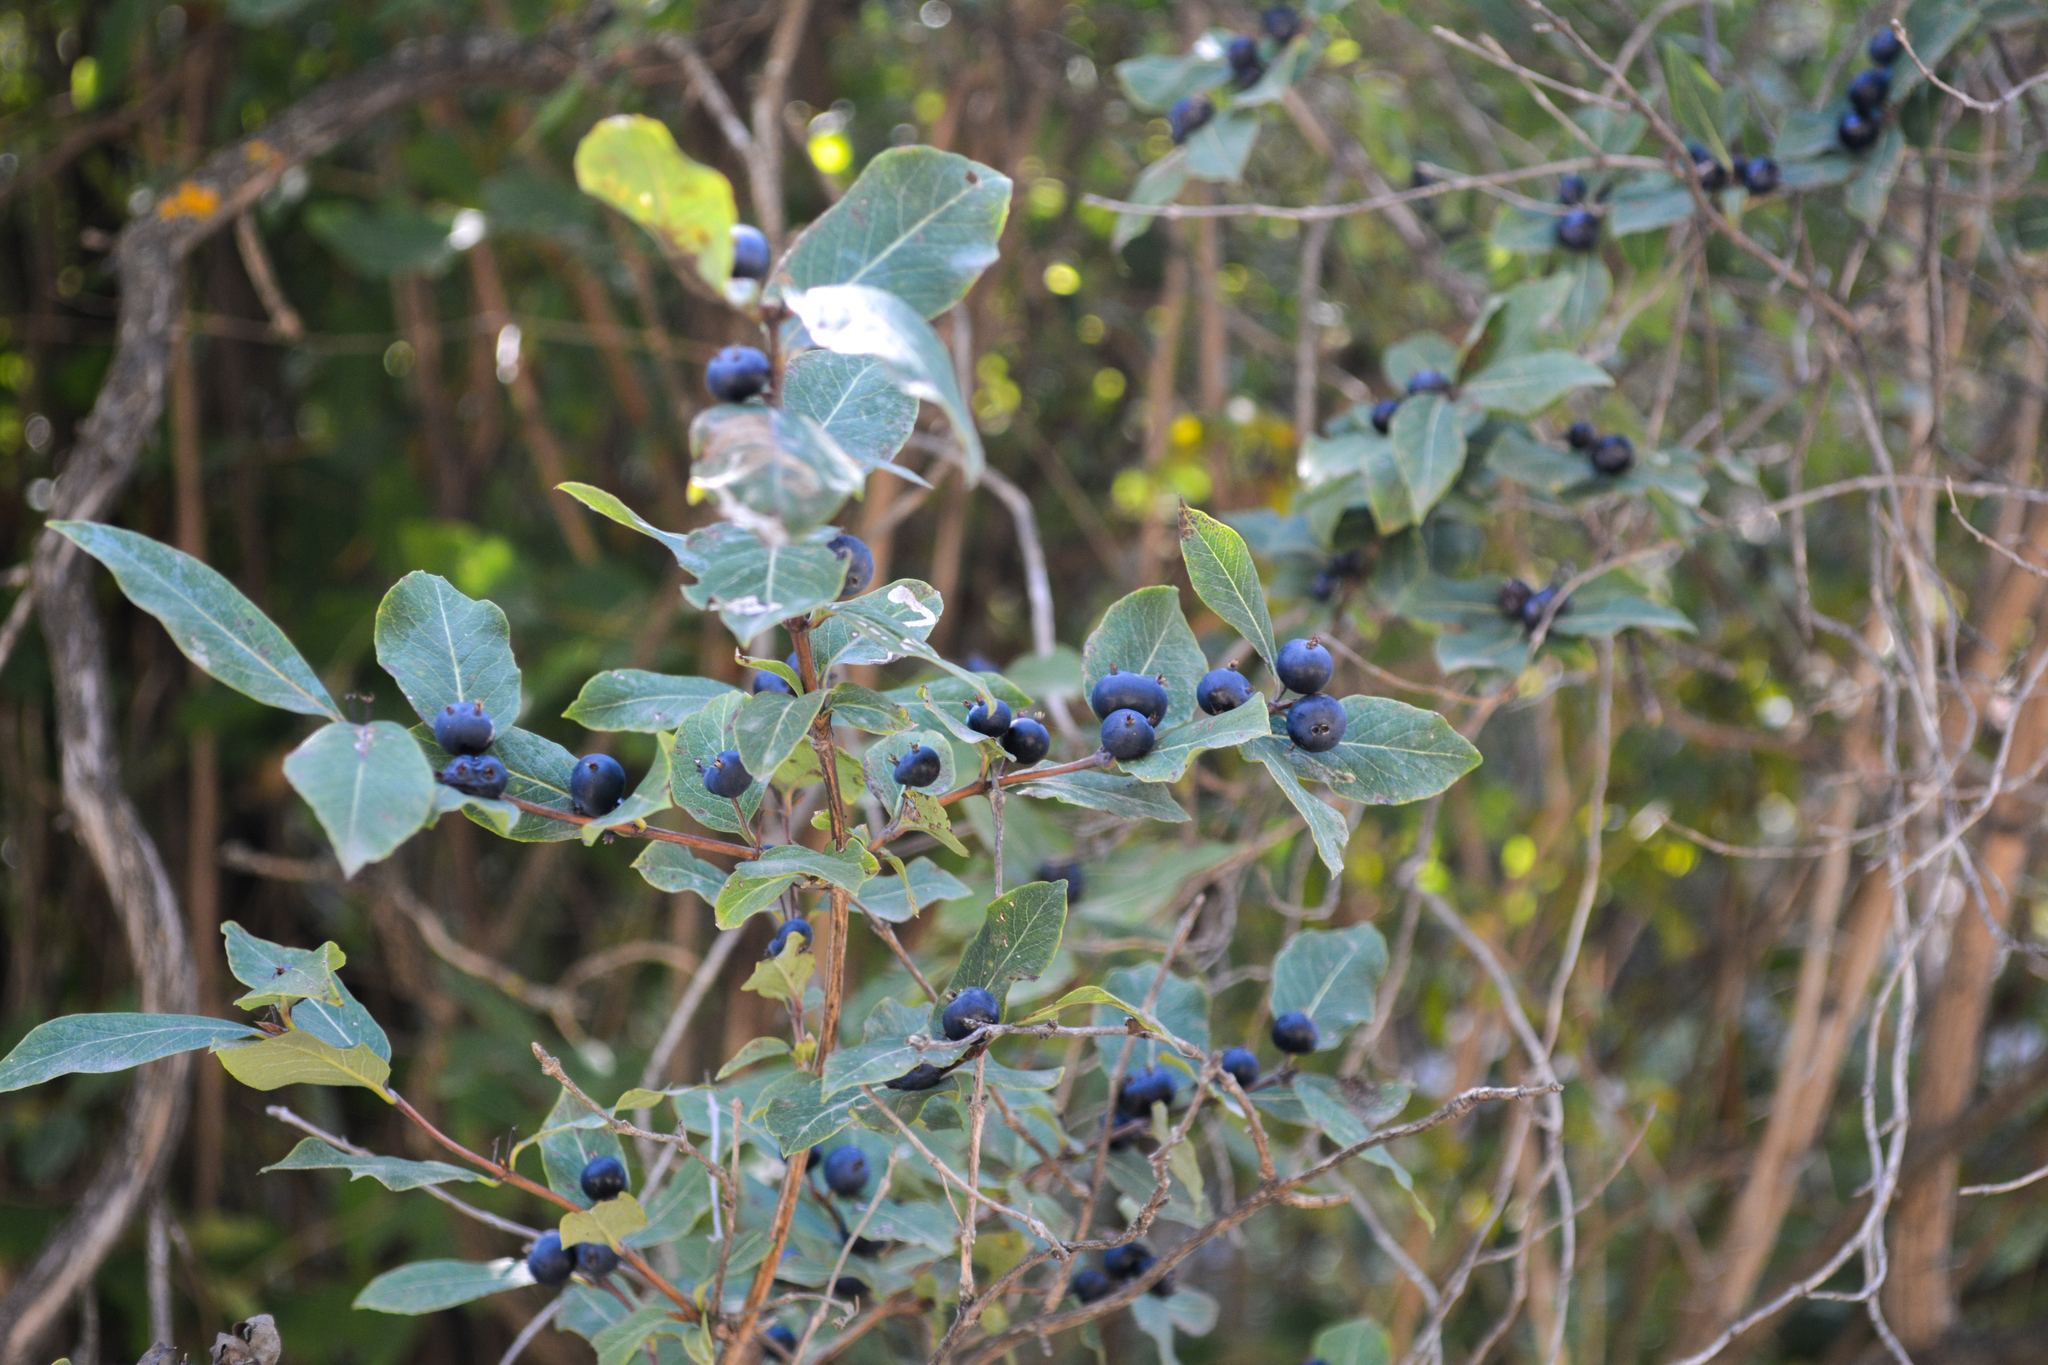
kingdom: Plantae
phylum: Tracheophyta
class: Magnoliopsida
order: Dipsacales
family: Caprifoliaceae
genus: Lonicera
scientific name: Lonicera caucasica
